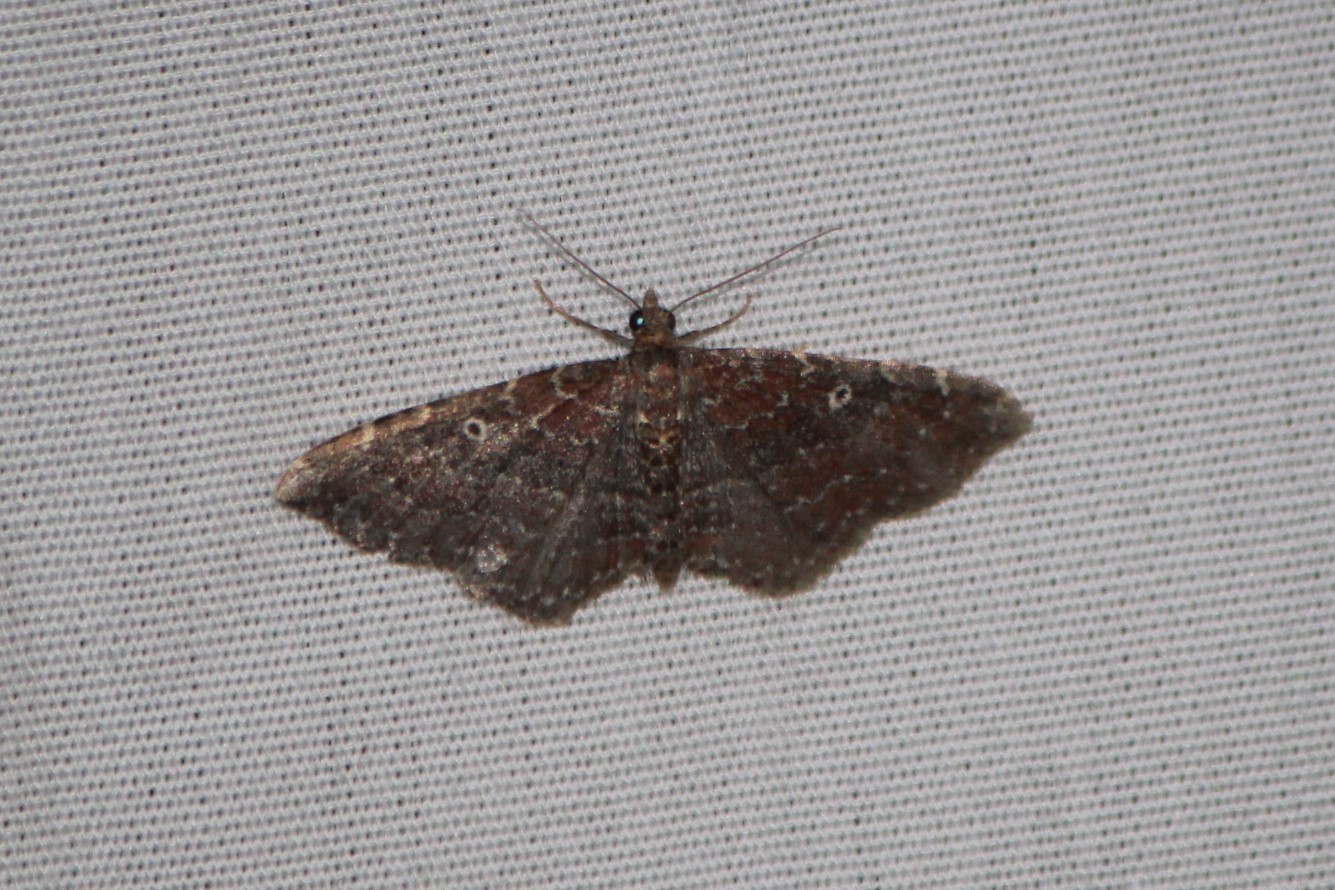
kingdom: Animalia
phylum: Arthropoda
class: Insecta
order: Lepidoptera
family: Geometridae
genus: Orthonama
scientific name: Orthonama obstipata
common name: The gem
